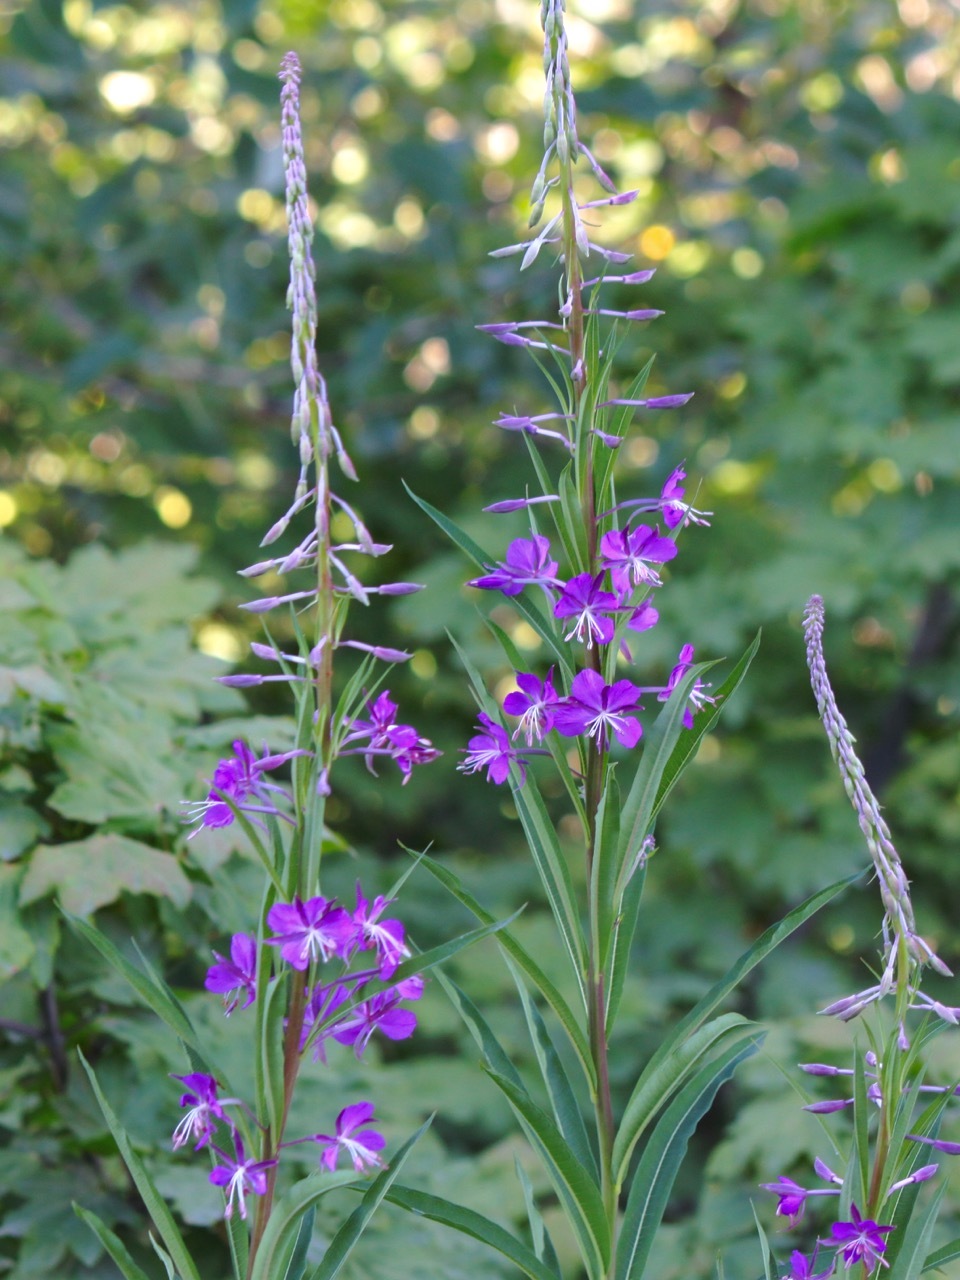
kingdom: Plantae
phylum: Tracheophyta
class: Magnoliopsida
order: Myrtales
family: Onagraceae
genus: Chamaenerion
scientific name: Chamaenerion angustifolium
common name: Fireweed
